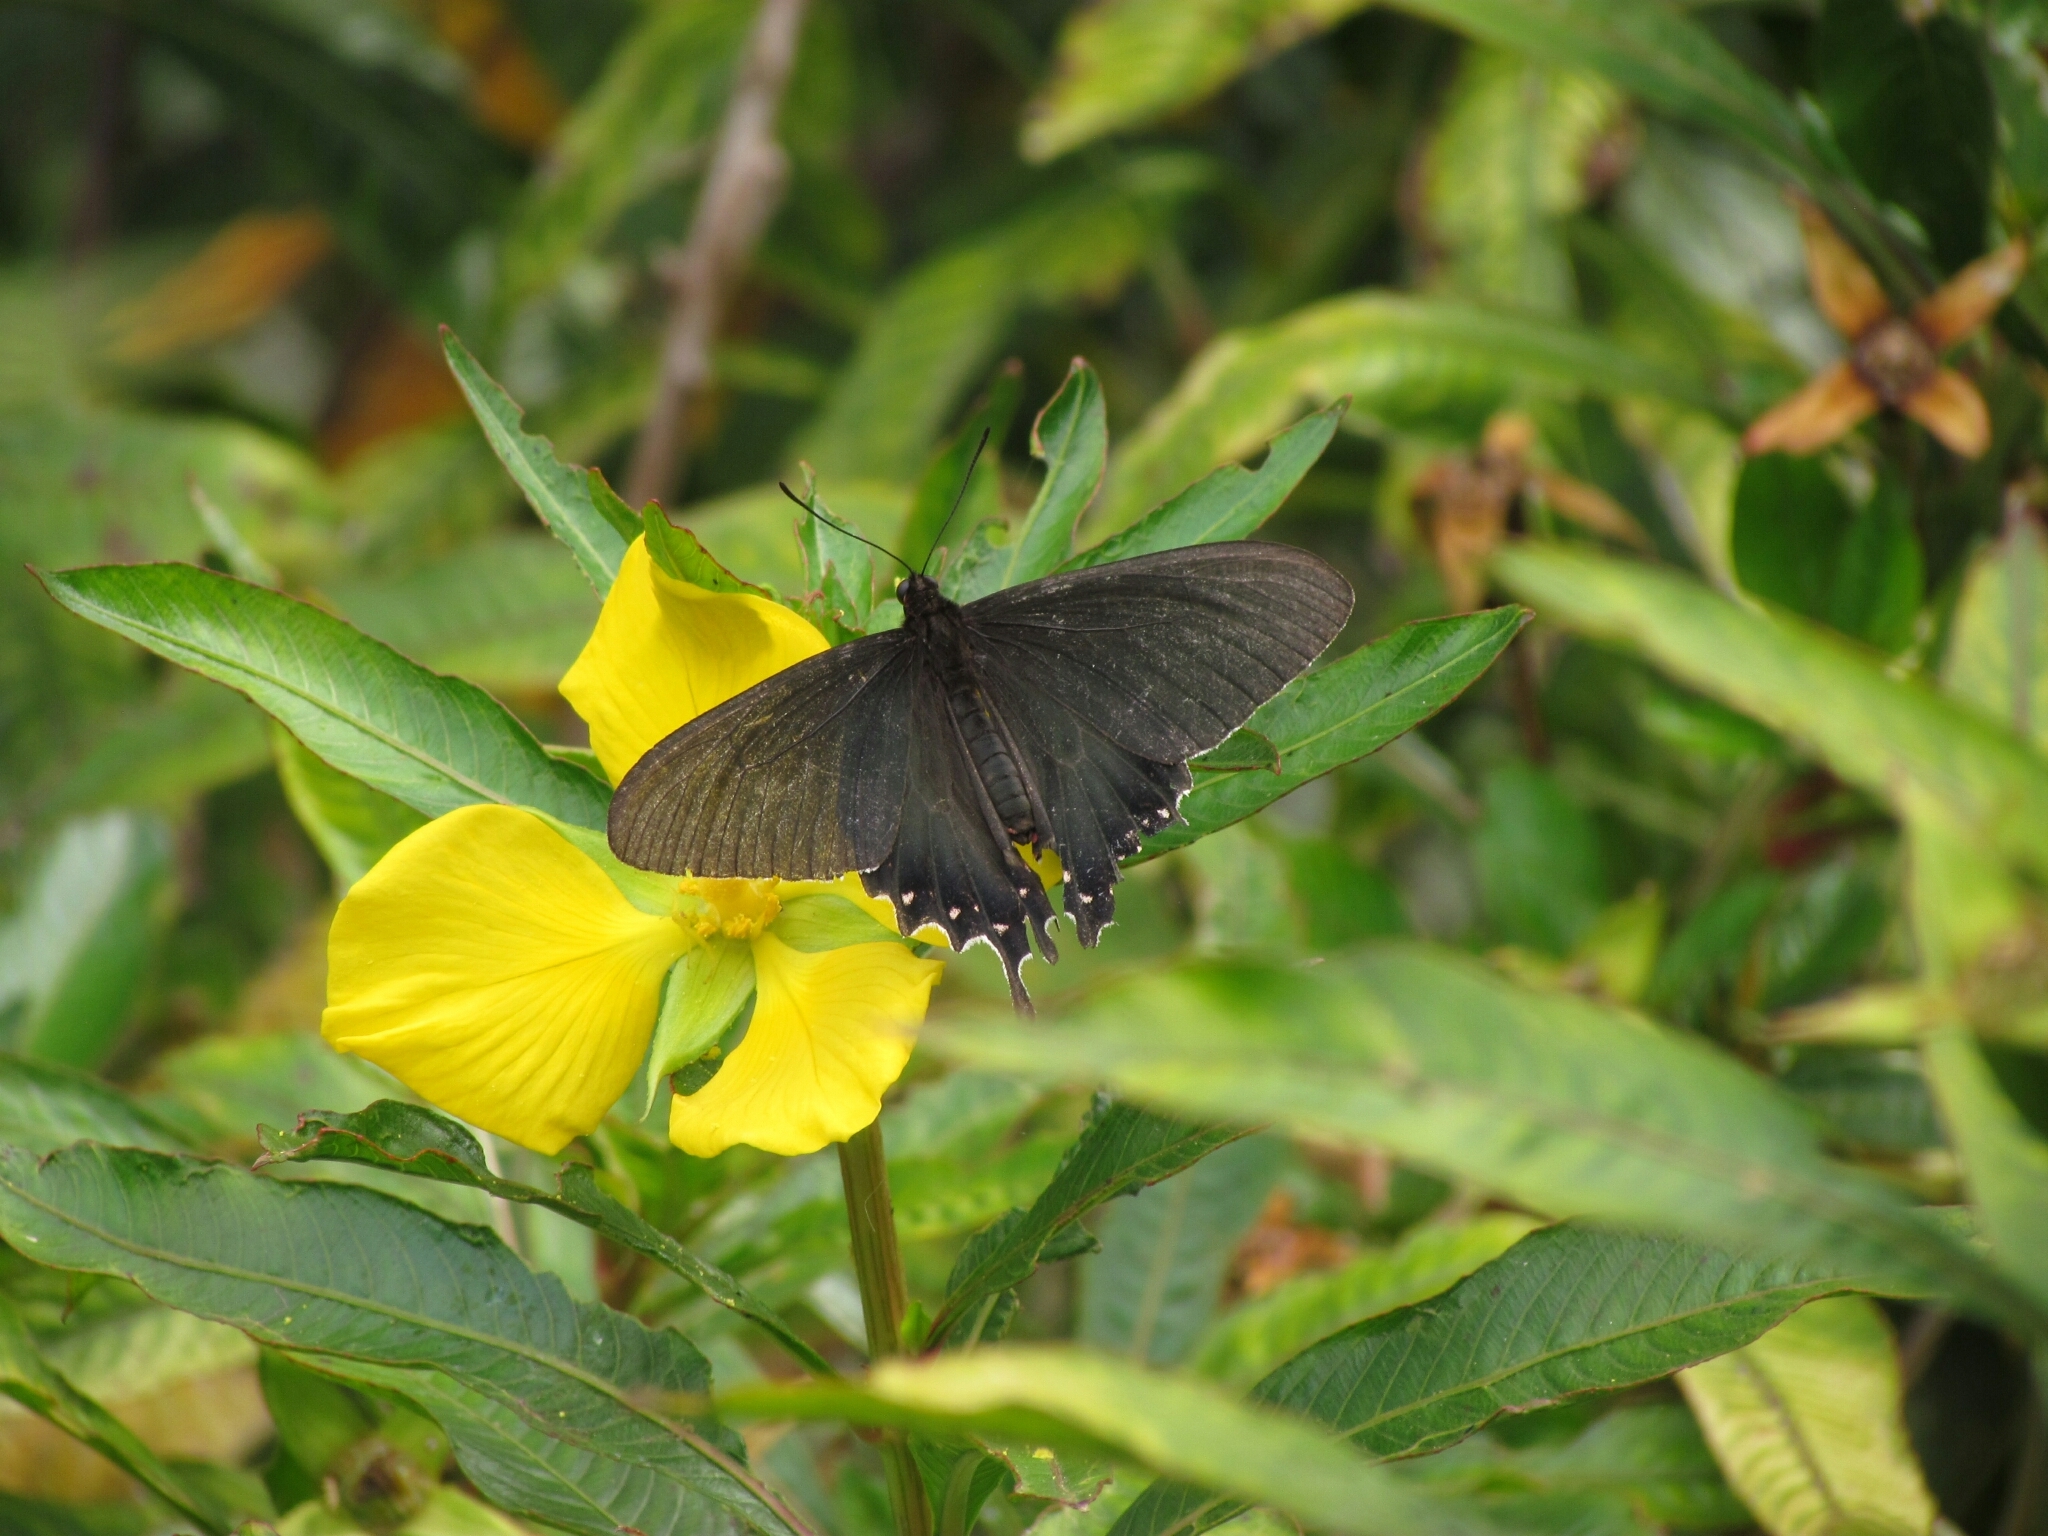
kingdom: Animalia
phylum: Arthropoda
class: Insecta
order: Lepidoptera
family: Papilionidae
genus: Parides
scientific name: Parides bunichus
